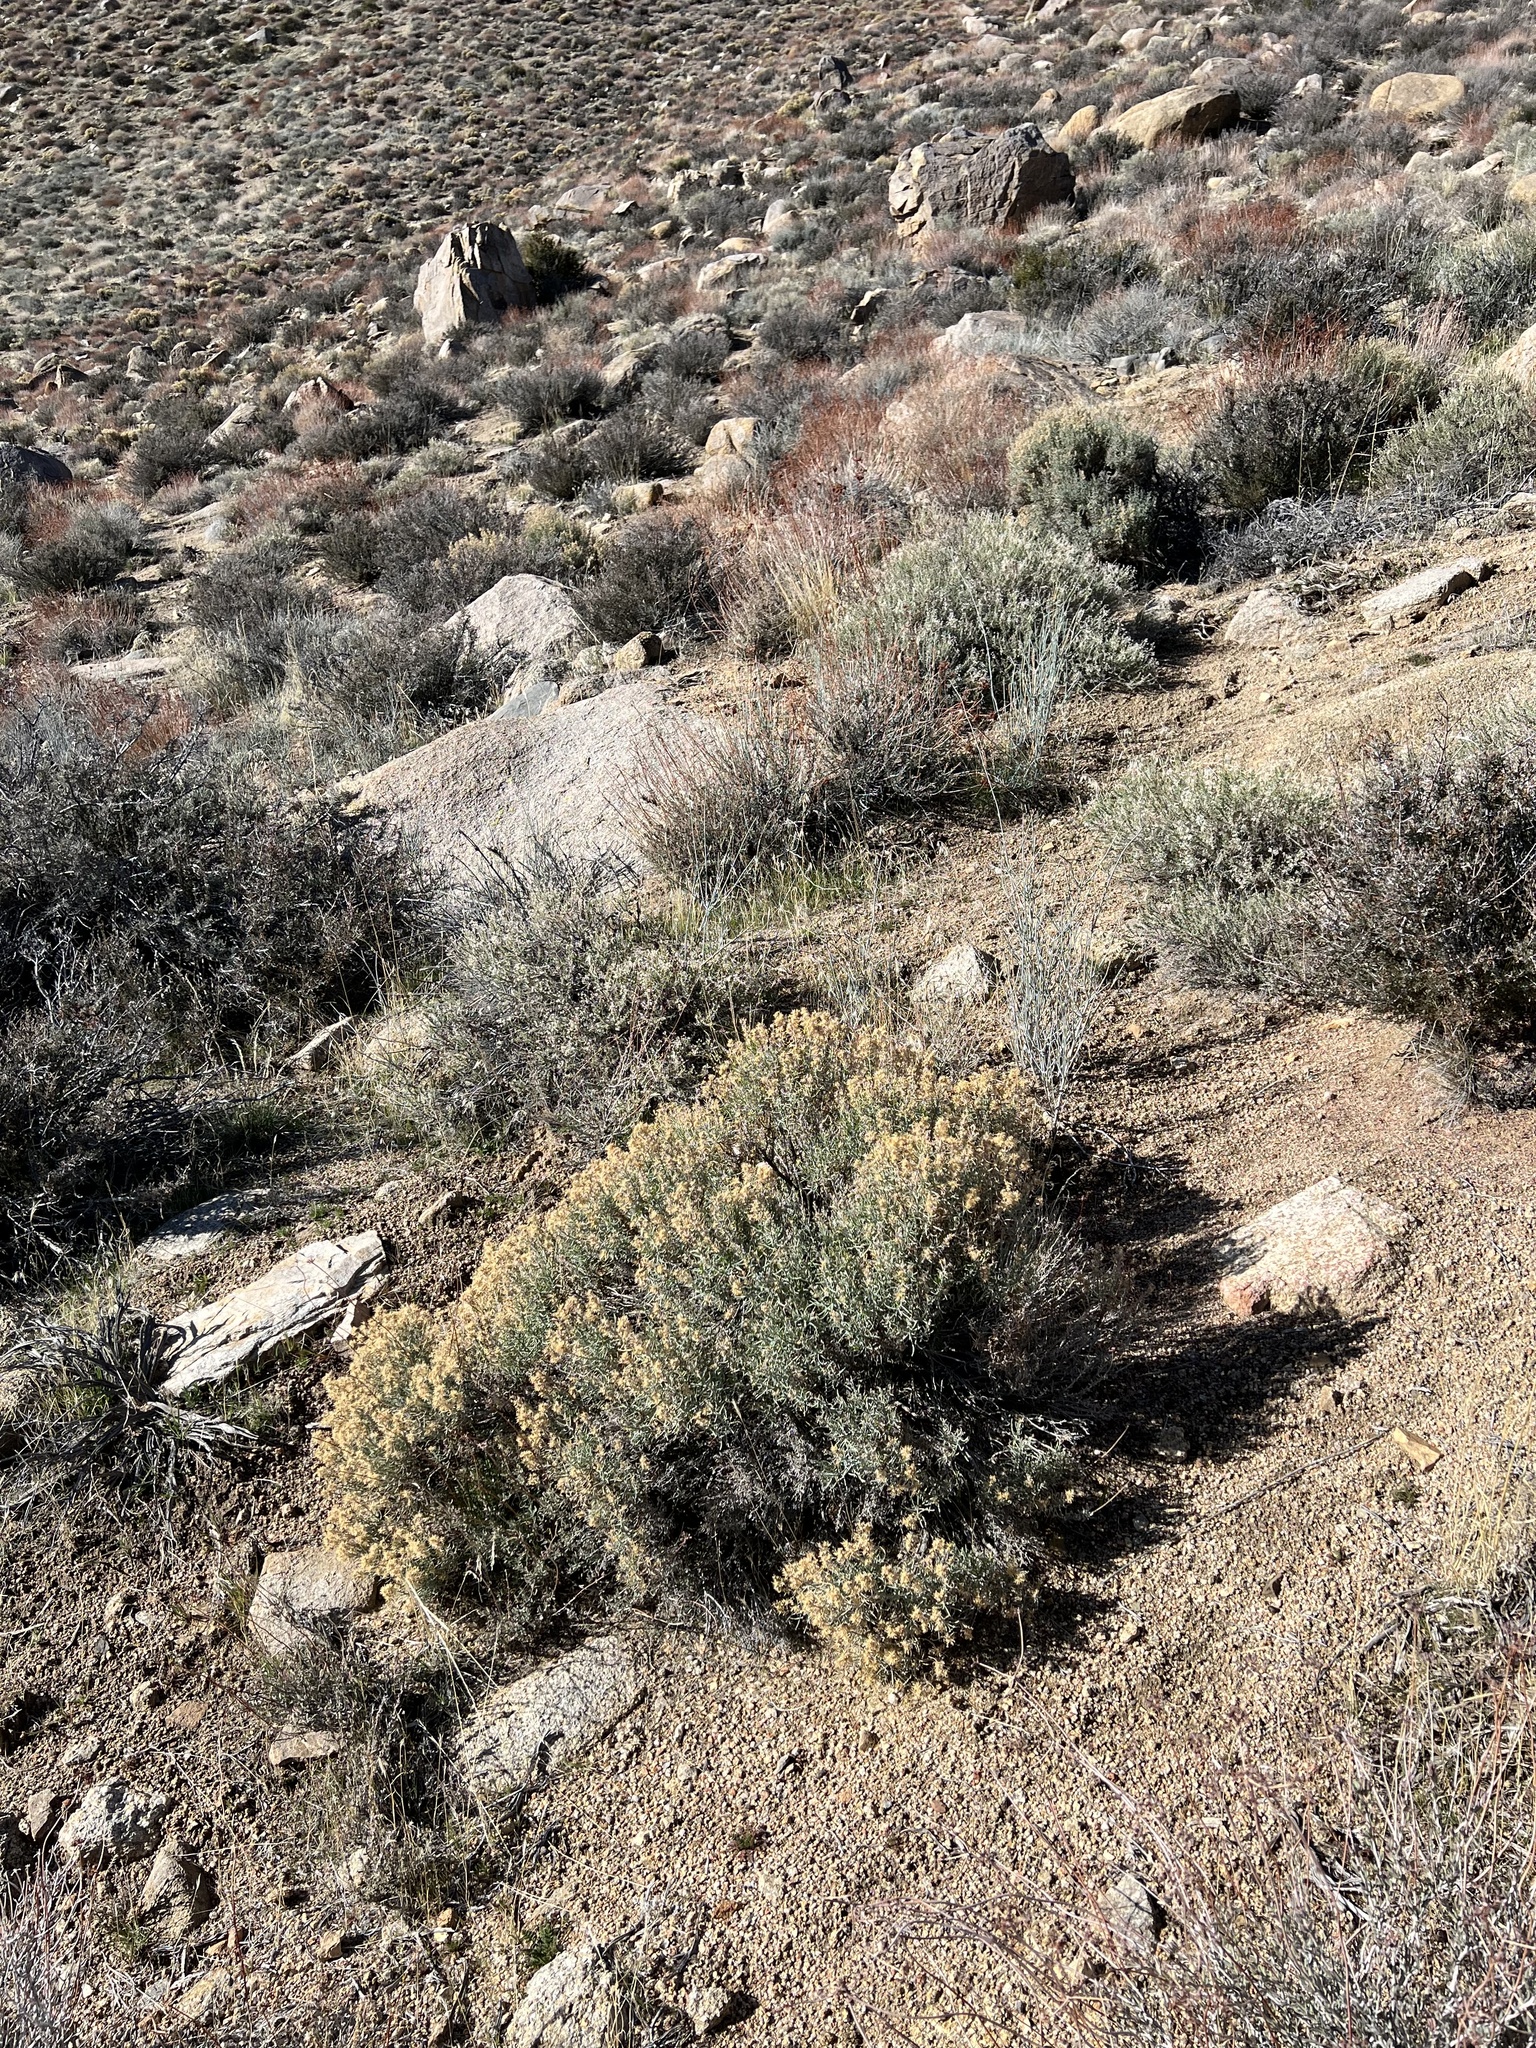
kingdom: Plantae
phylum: Tracheophyta
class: Magnoliopsida
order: Asterales
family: Asteraceae
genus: Ericameria
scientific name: Ericameria teretifolia
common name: Round-leaf rabbitbrush
